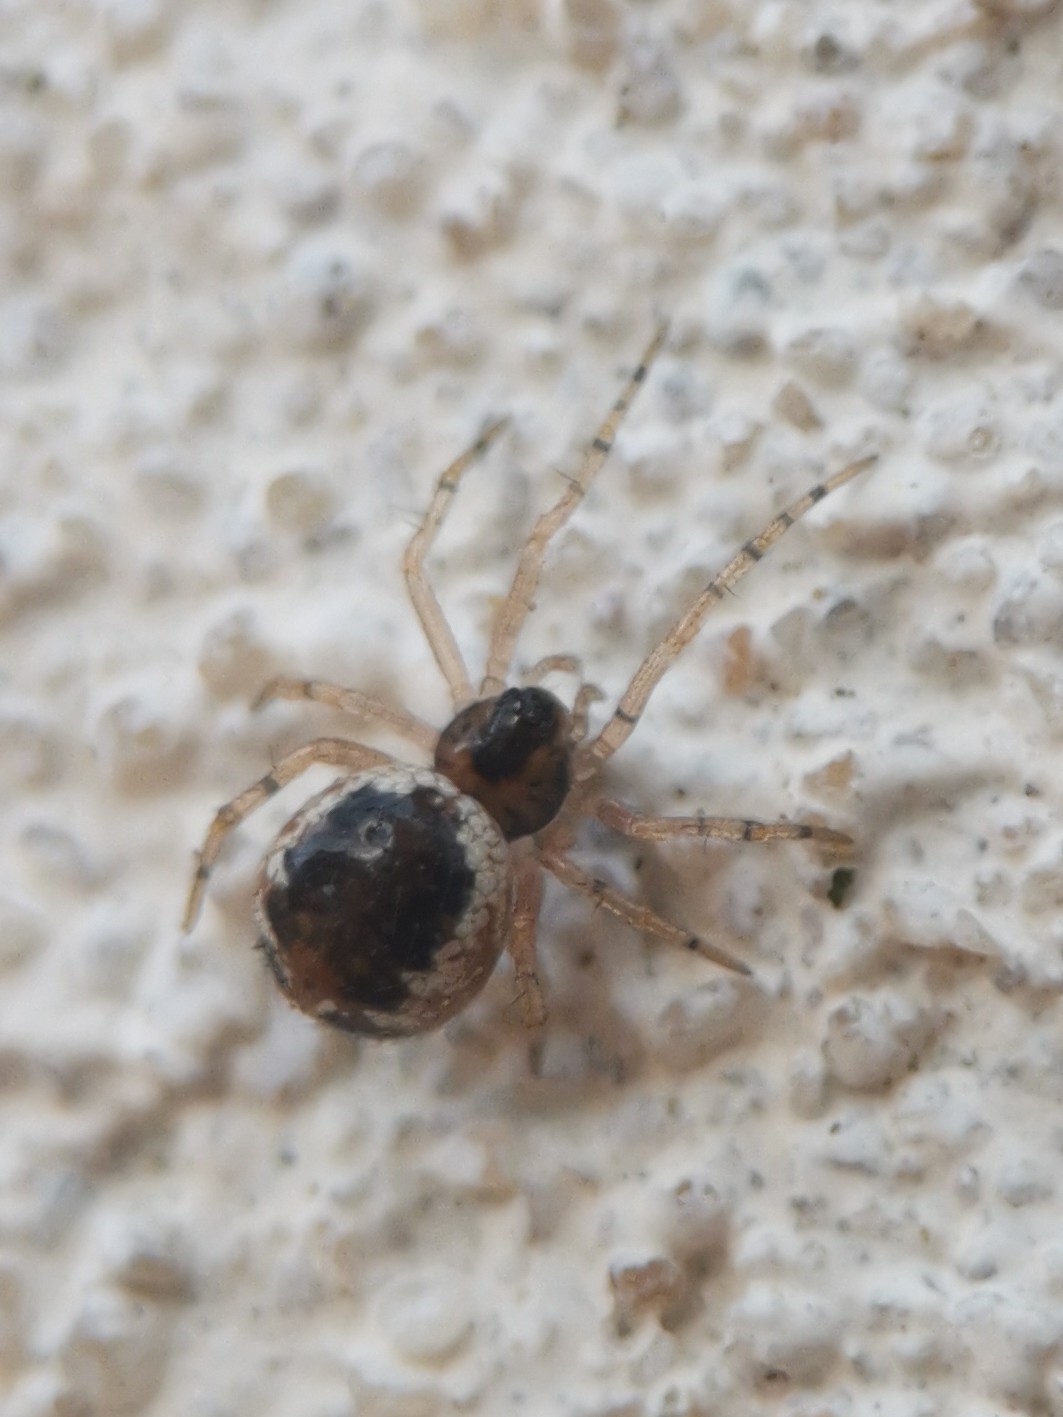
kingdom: Animalia
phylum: Arthropoda
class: Arachnida
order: Araneae
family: Theridiidae
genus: Sardinidion
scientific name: Sardinidion blackwalli
